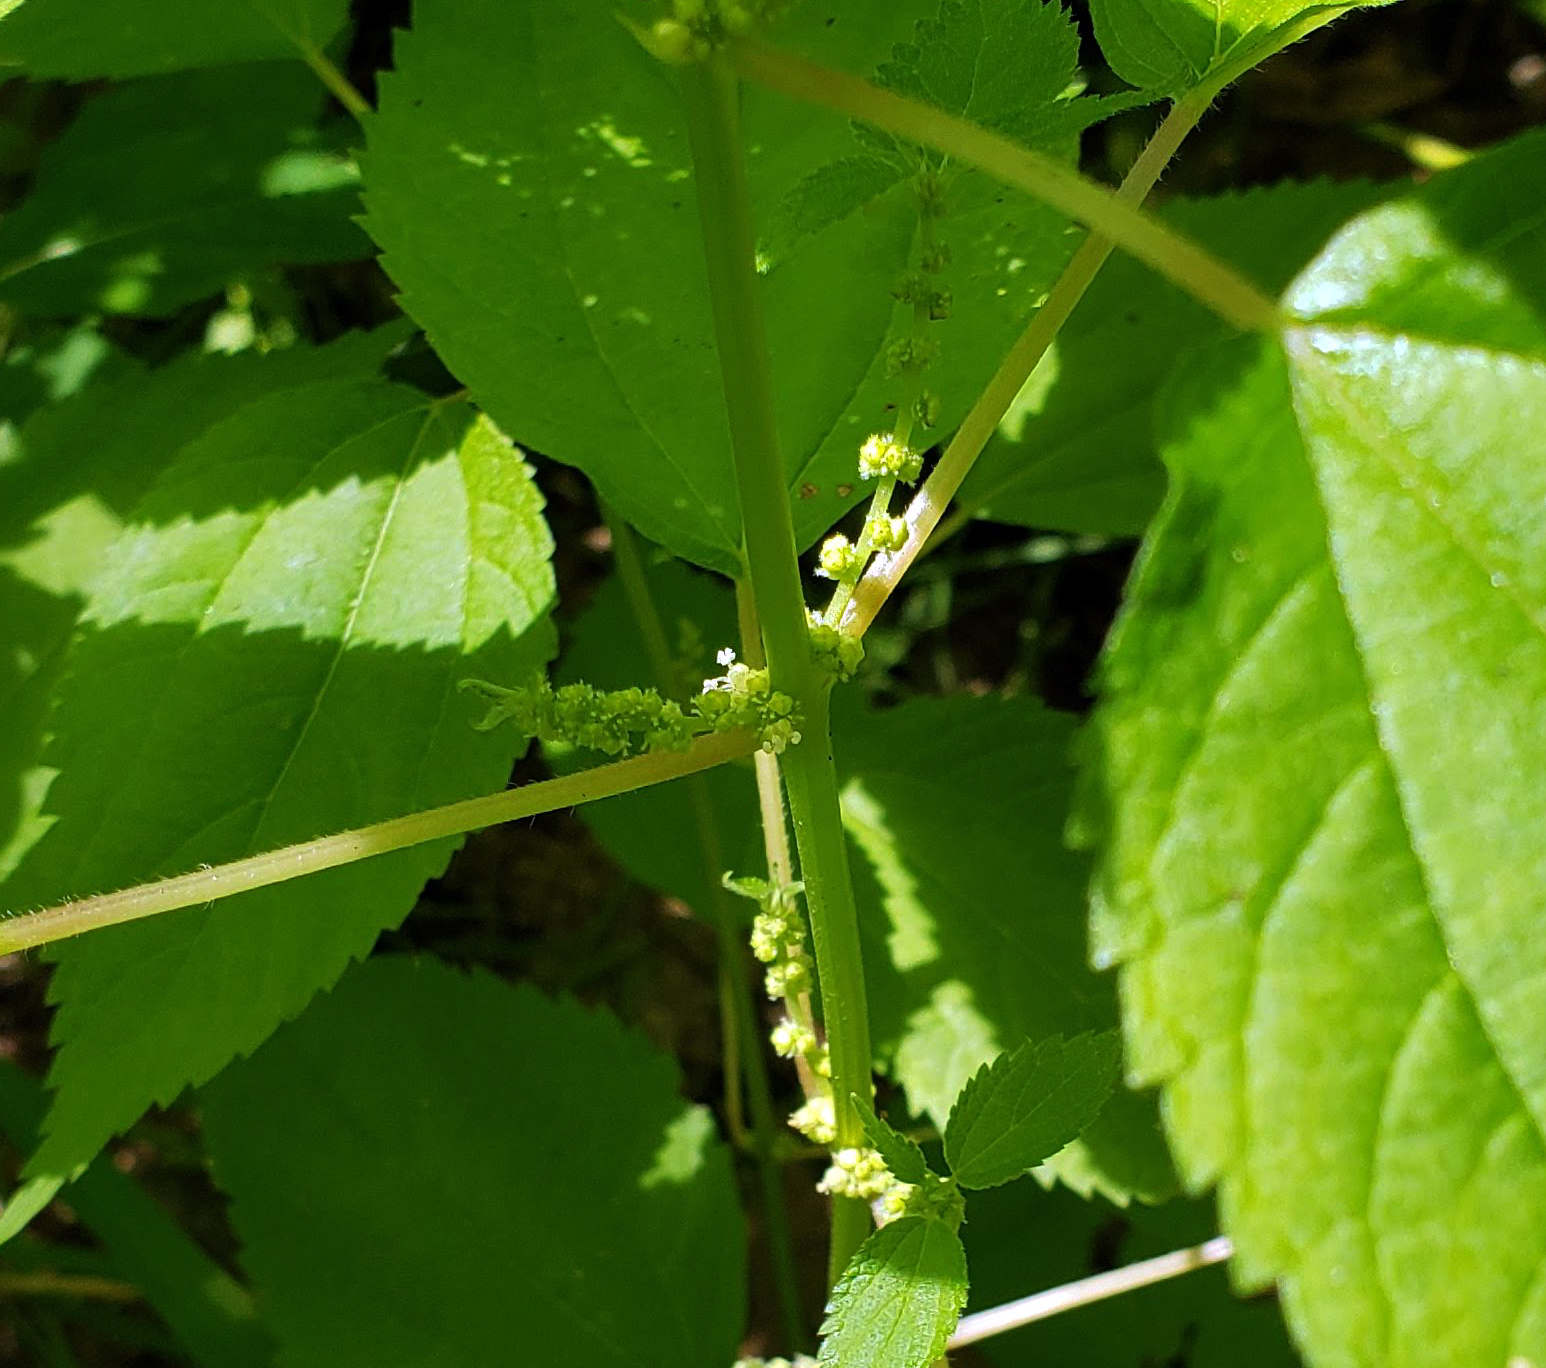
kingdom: Plantae
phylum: Tracheophyta
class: Magnoliopsida
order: Rosales
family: Urticaceae
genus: Boehmeria
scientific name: Boehmeria cylindrica
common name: Bog-hemp
